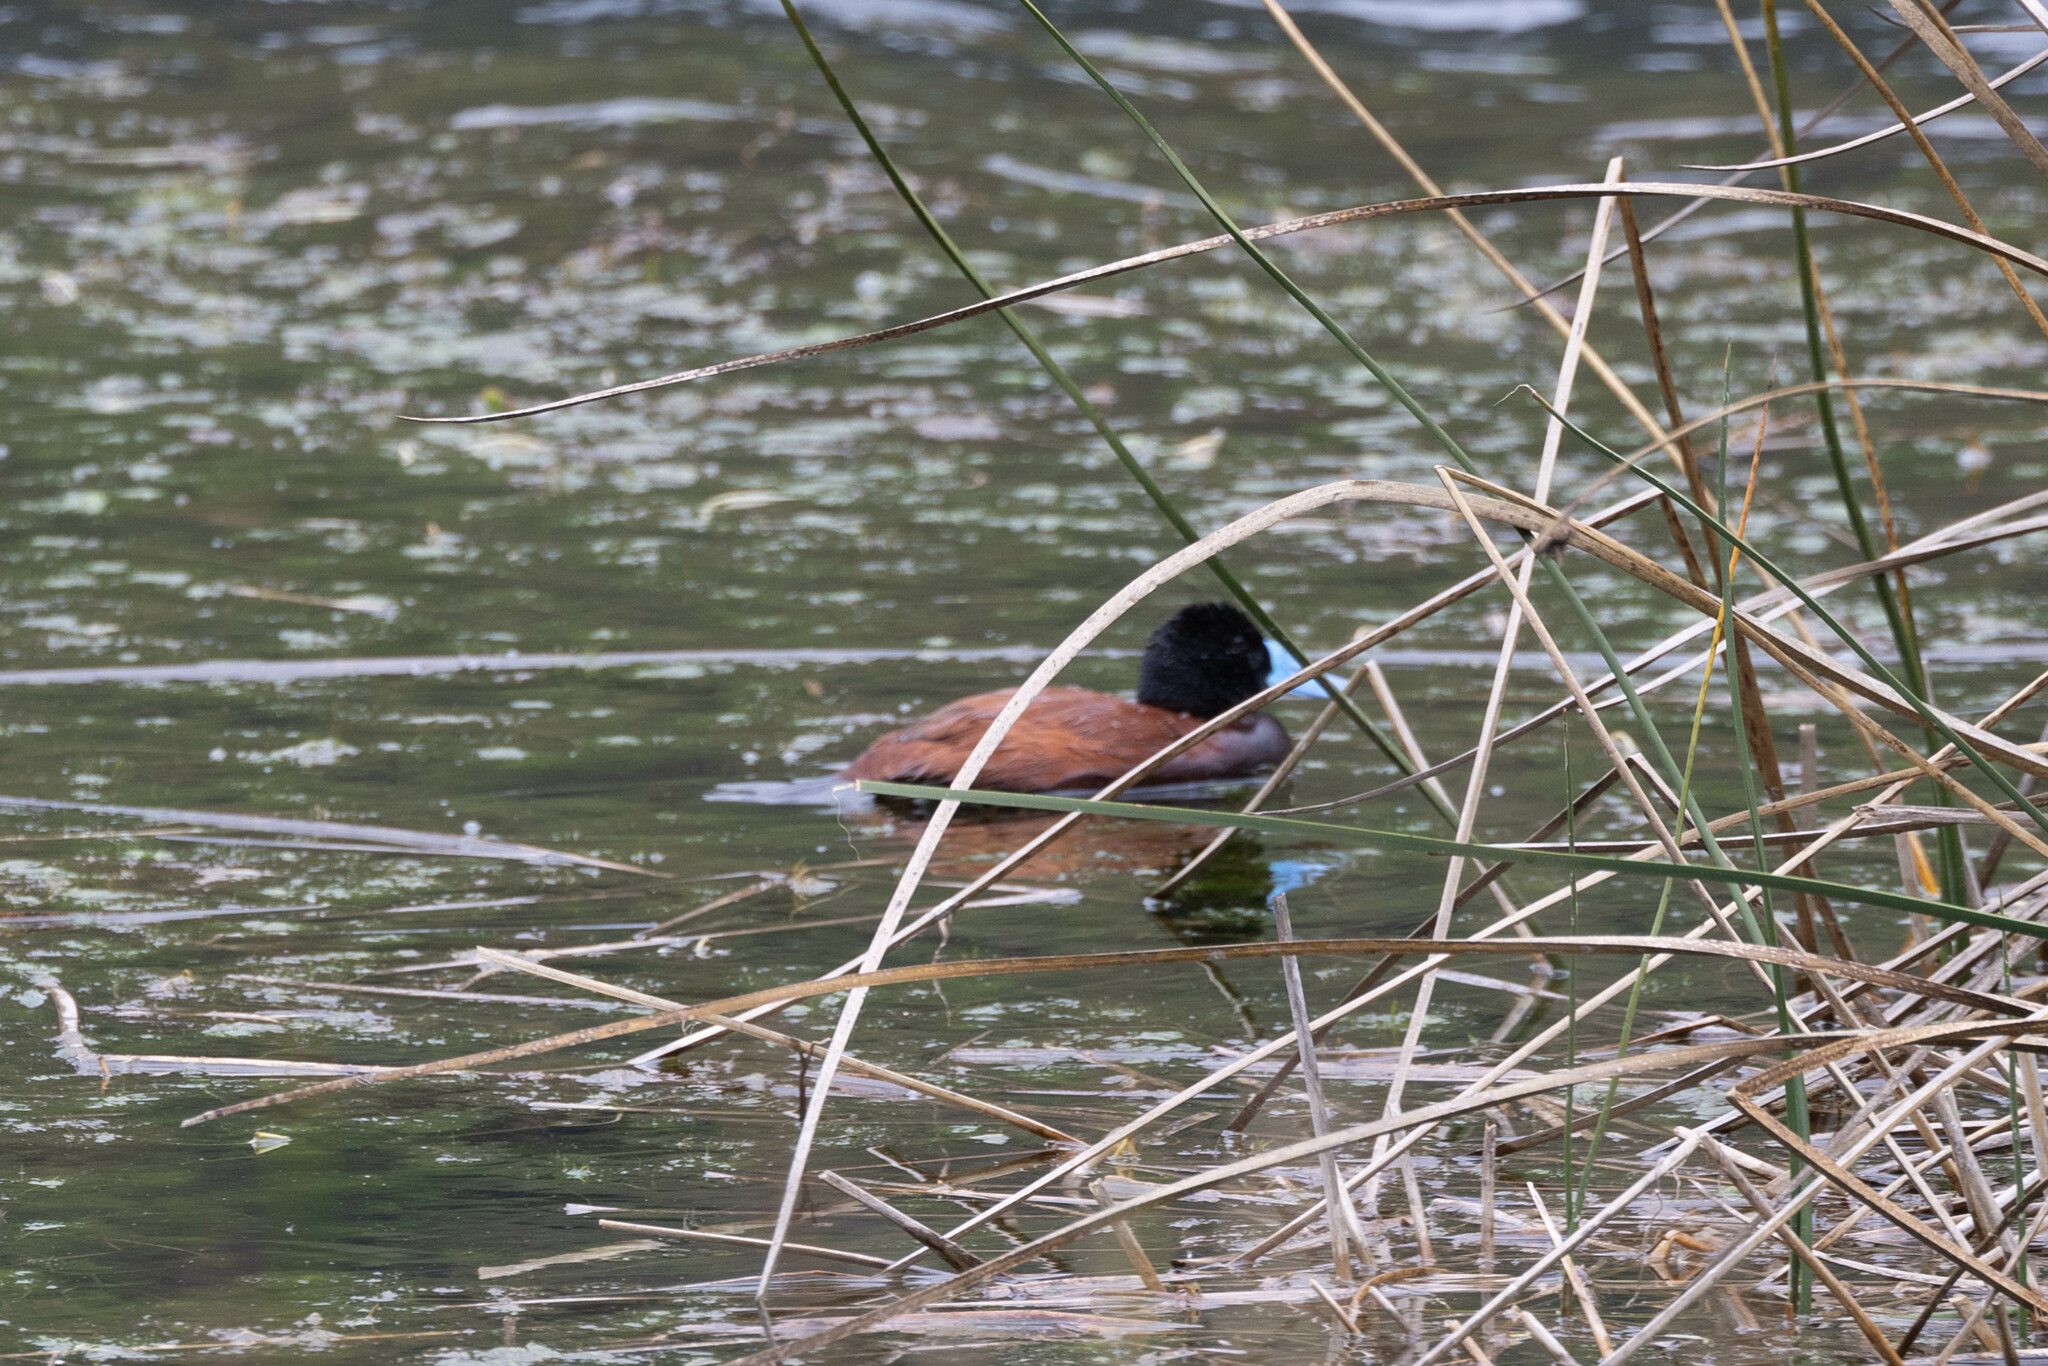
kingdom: Animalia
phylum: Chordata
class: Aves
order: Anseriformes
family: Anatidae
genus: Oxyura
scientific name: Oxyura ferruginea
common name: Andean duck
